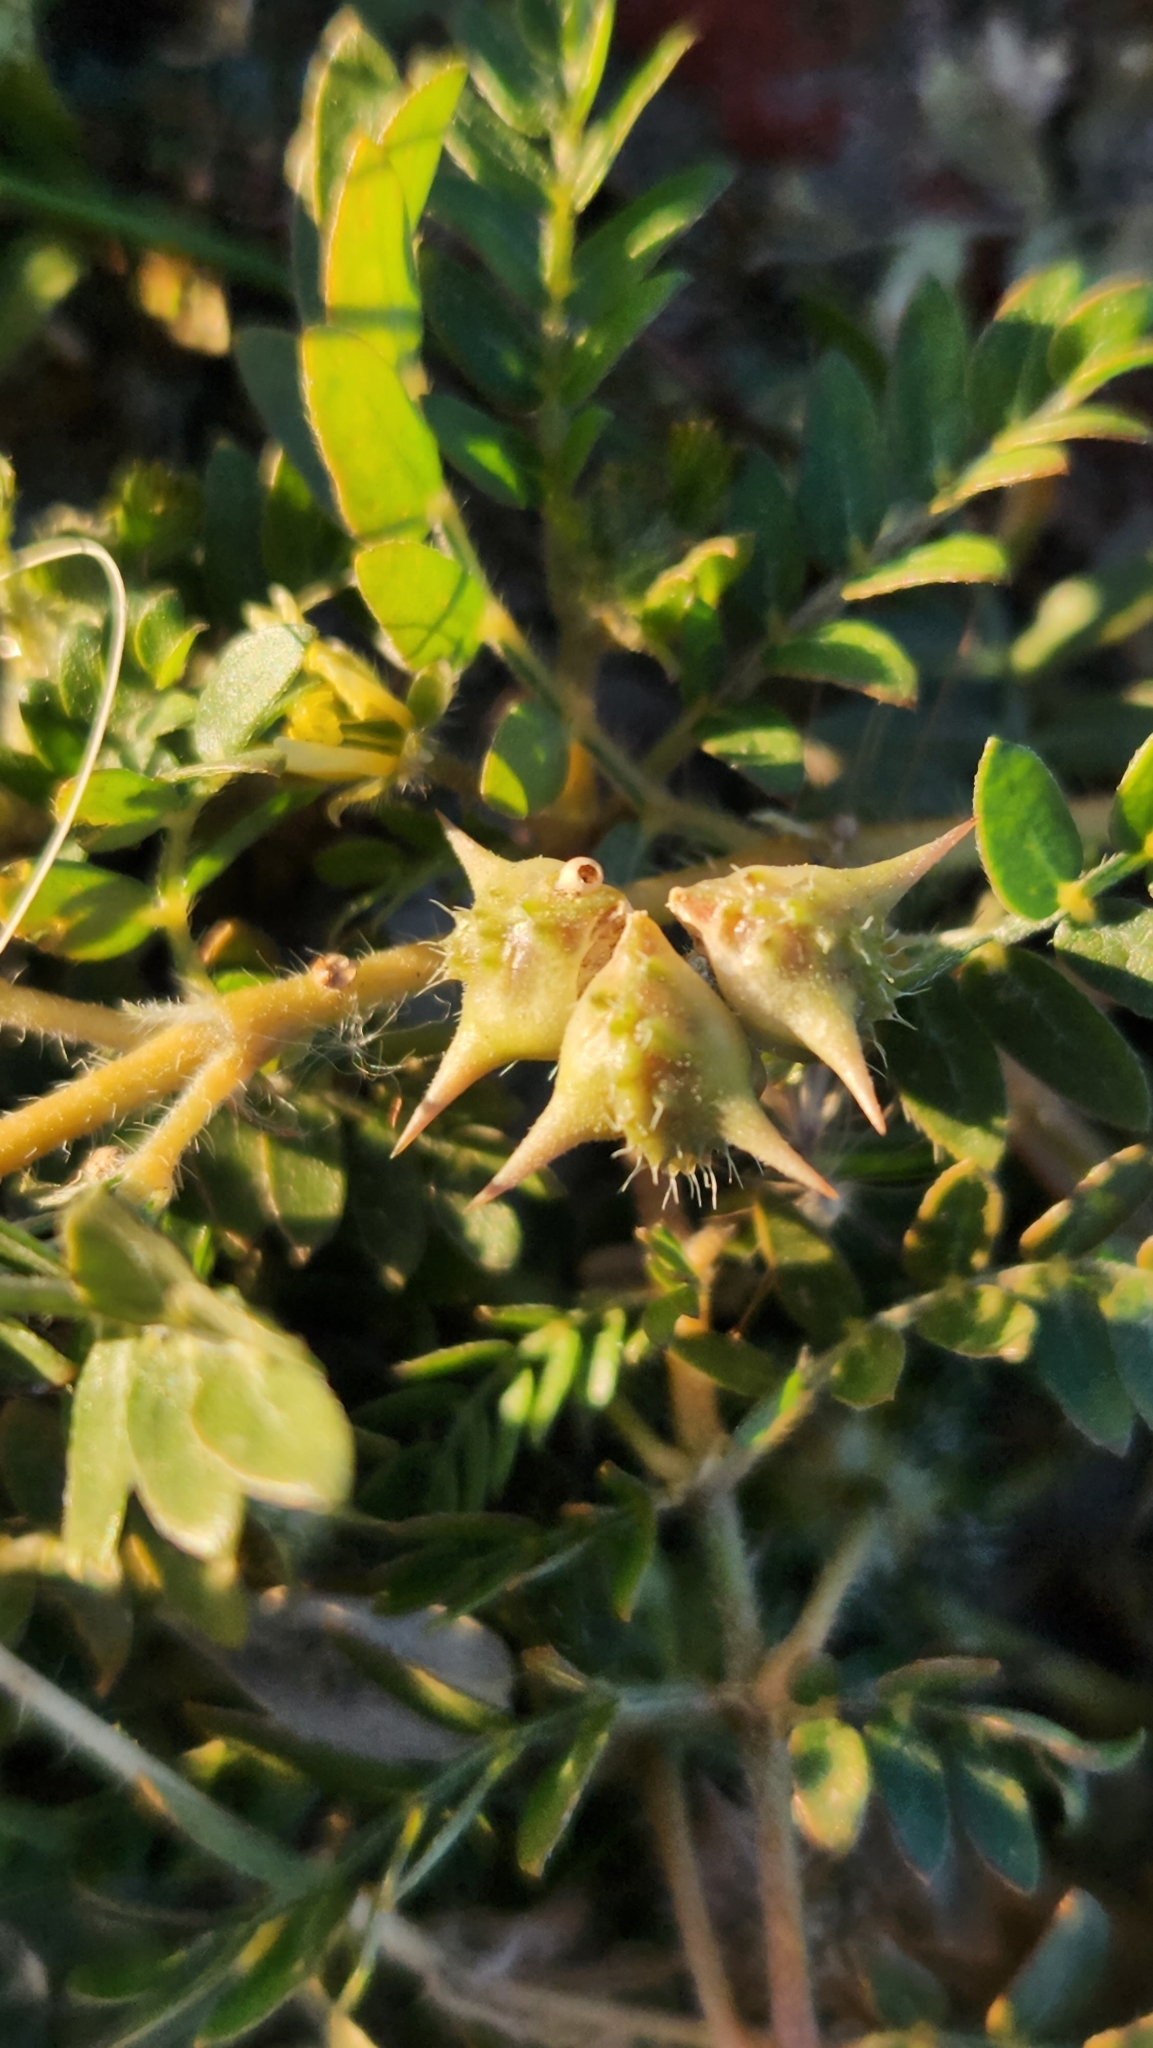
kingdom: Plantae
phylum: Tracheophyta
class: Magnoliopsida
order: Zygophyllales
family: Zygophyllaceae
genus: Tribulus
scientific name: Tribulus terrestris
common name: Puncturevine
